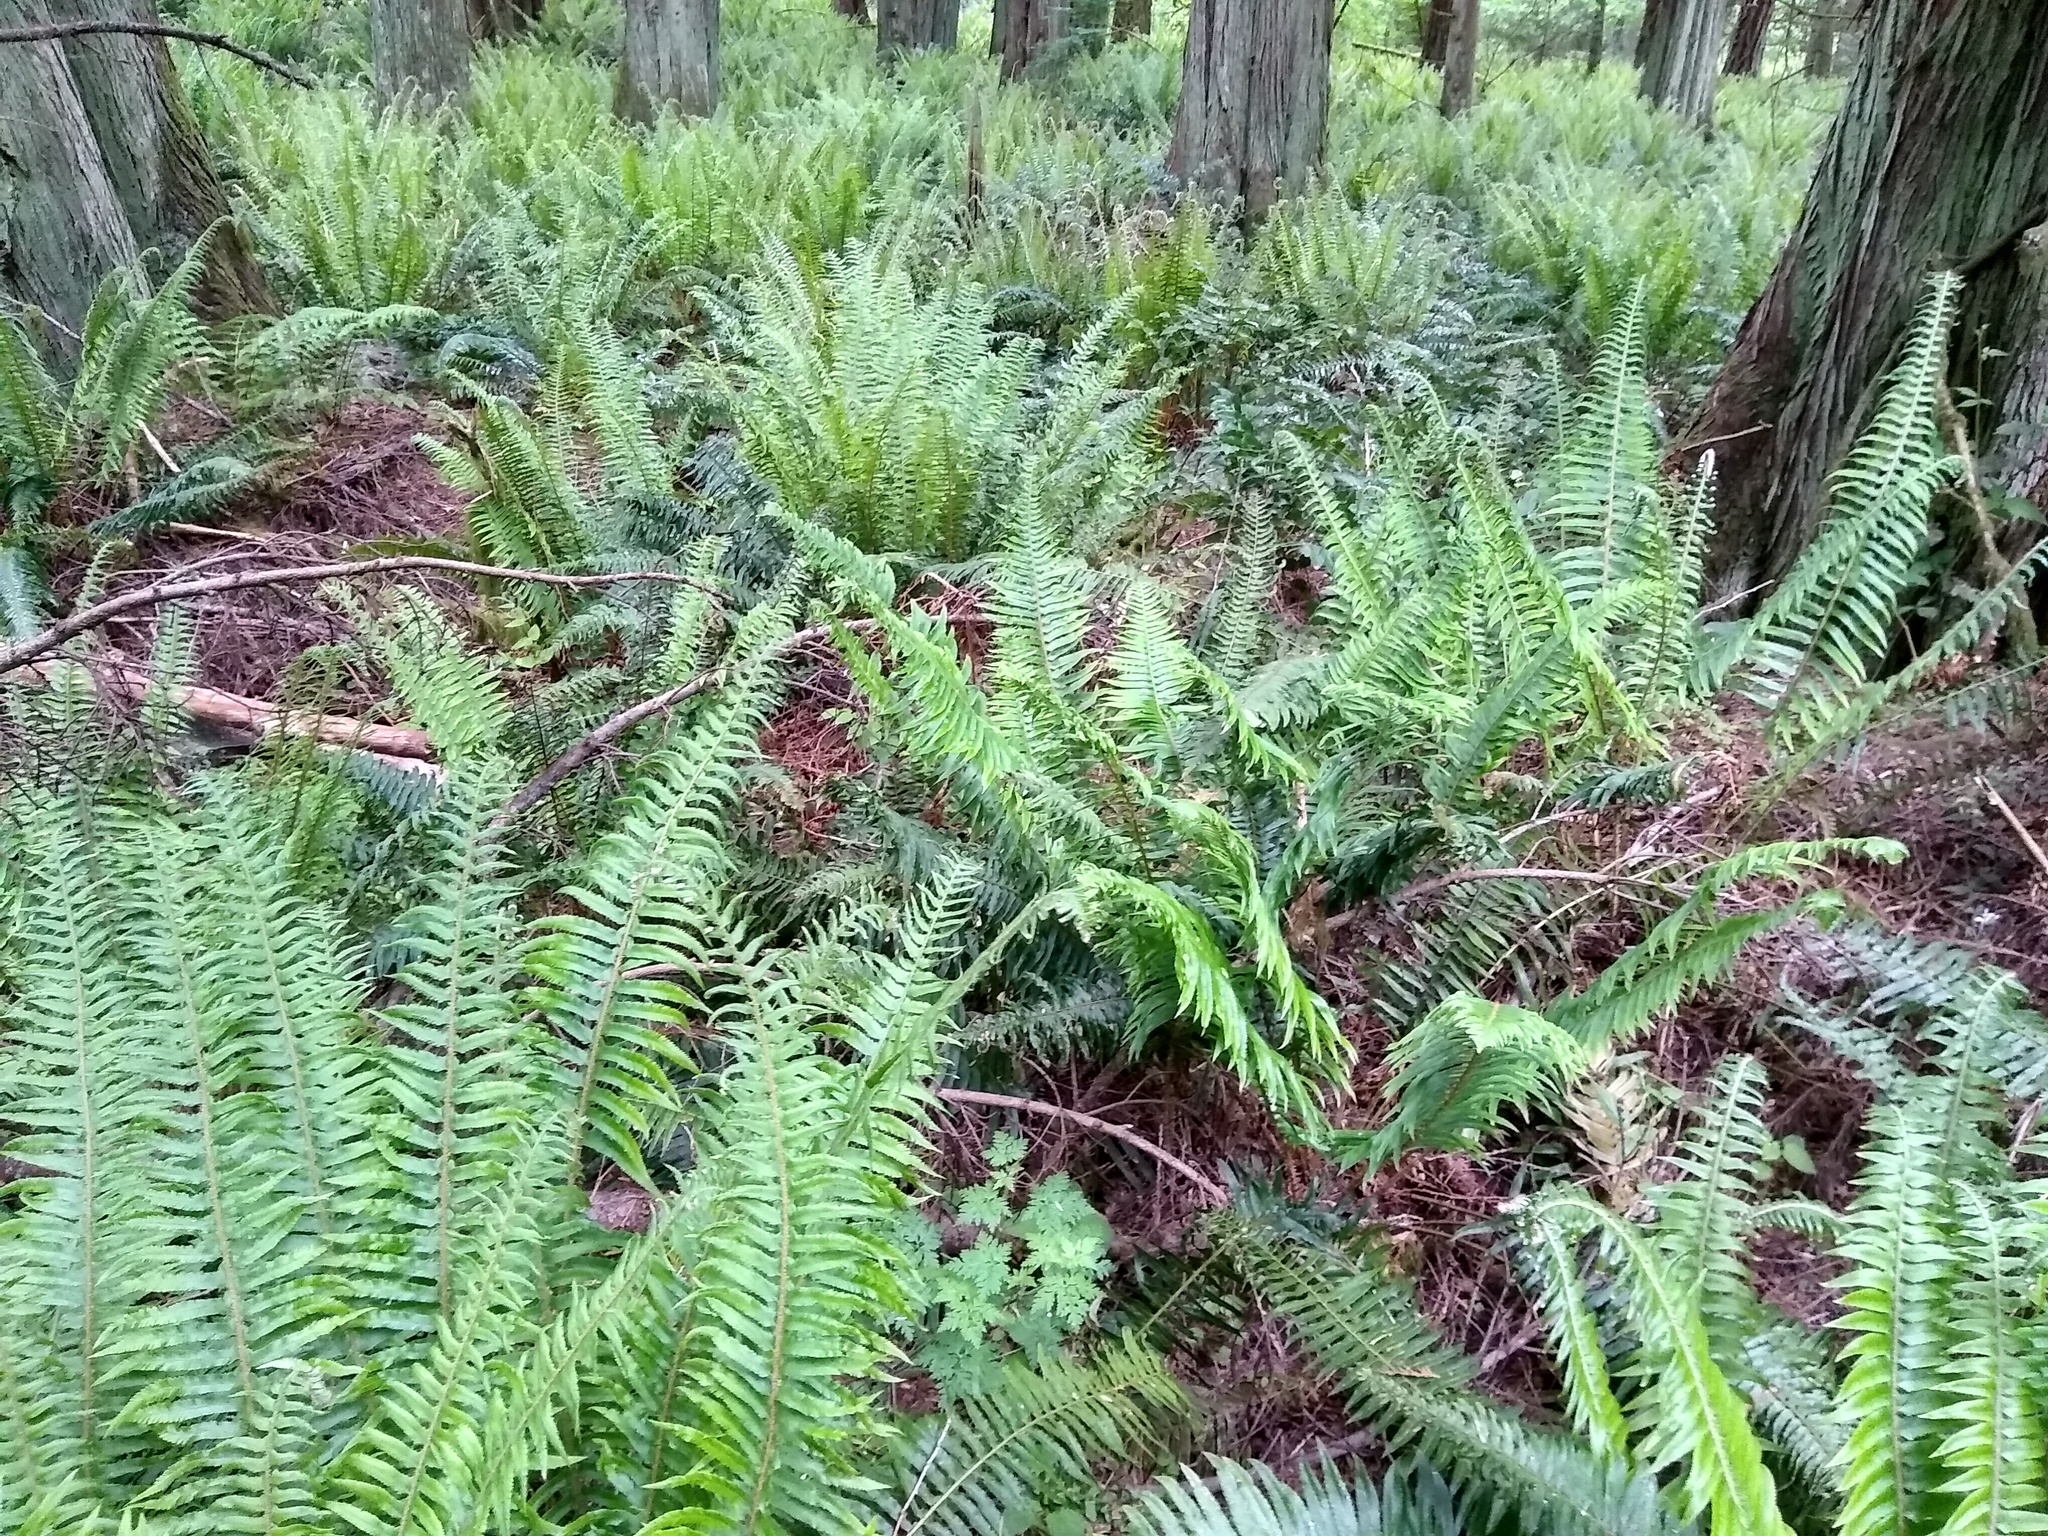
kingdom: Plantae
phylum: Tracheophyta
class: Polypodiopsida
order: Polypodiales
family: Dryopteridaceae
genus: Polystichum
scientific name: Polystichum munitum
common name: Western sword-fern
